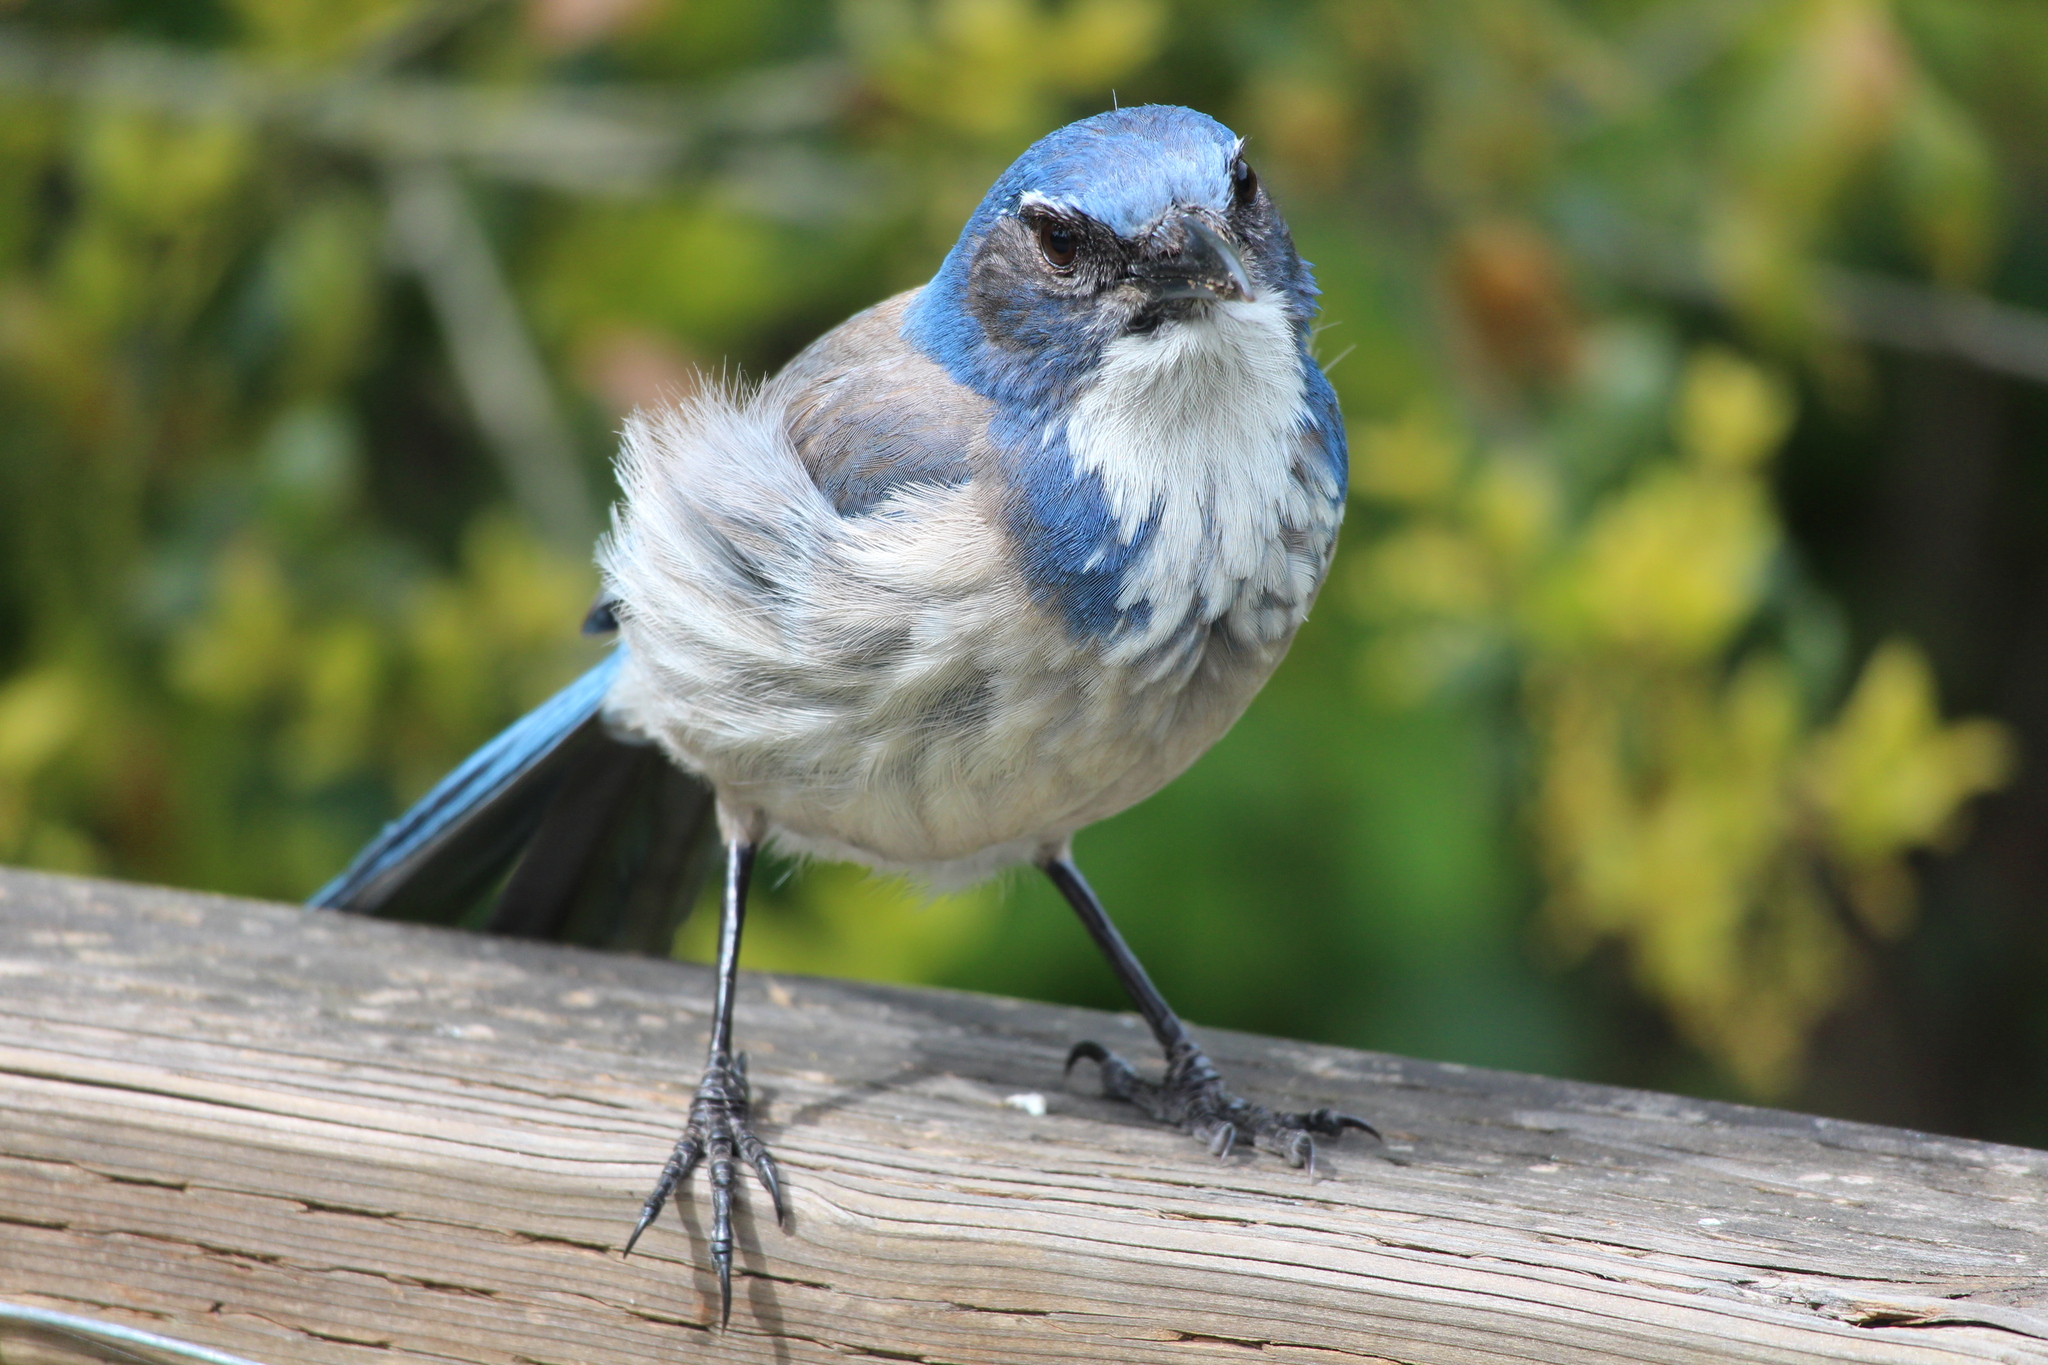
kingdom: Animalia
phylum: Chordata
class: Aves
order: Passeriformes
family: Corvidae
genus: Aphelocoma
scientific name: Aphelocoma californica
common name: California scrub-jay
